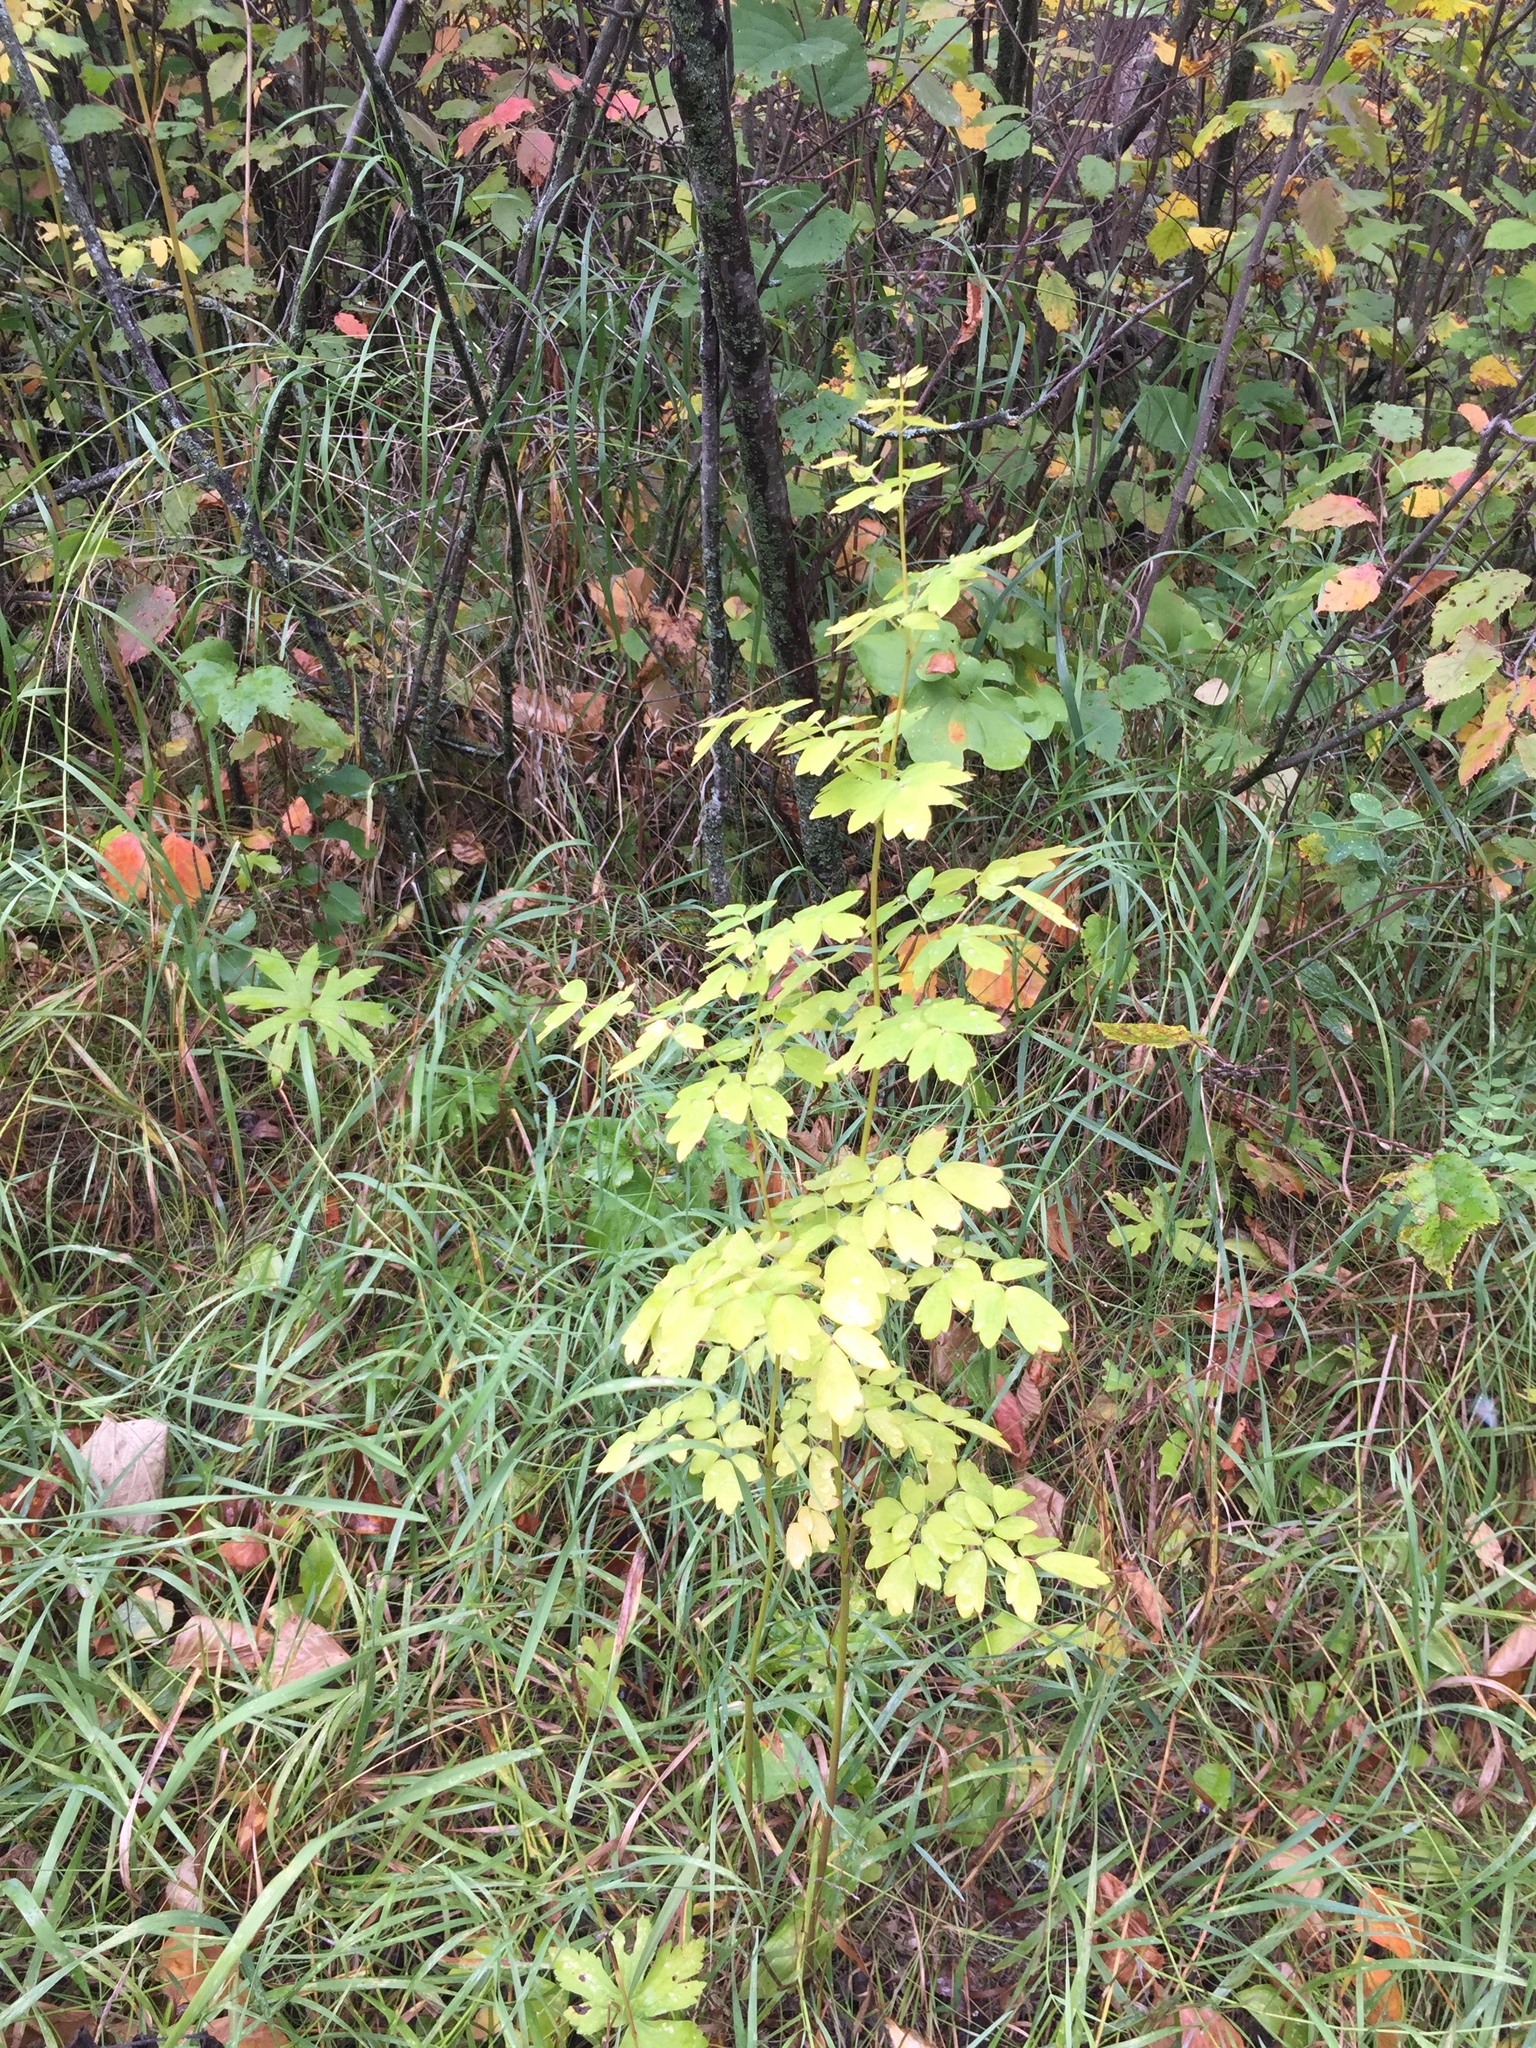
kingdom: Plantae
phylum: Tracheophyta
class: Magnoliopsida
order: Ranunculales
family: Ranunculaceae
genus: Thalictrum
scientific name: Thalictrum dasycarpum
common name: Purple meadow-rue
